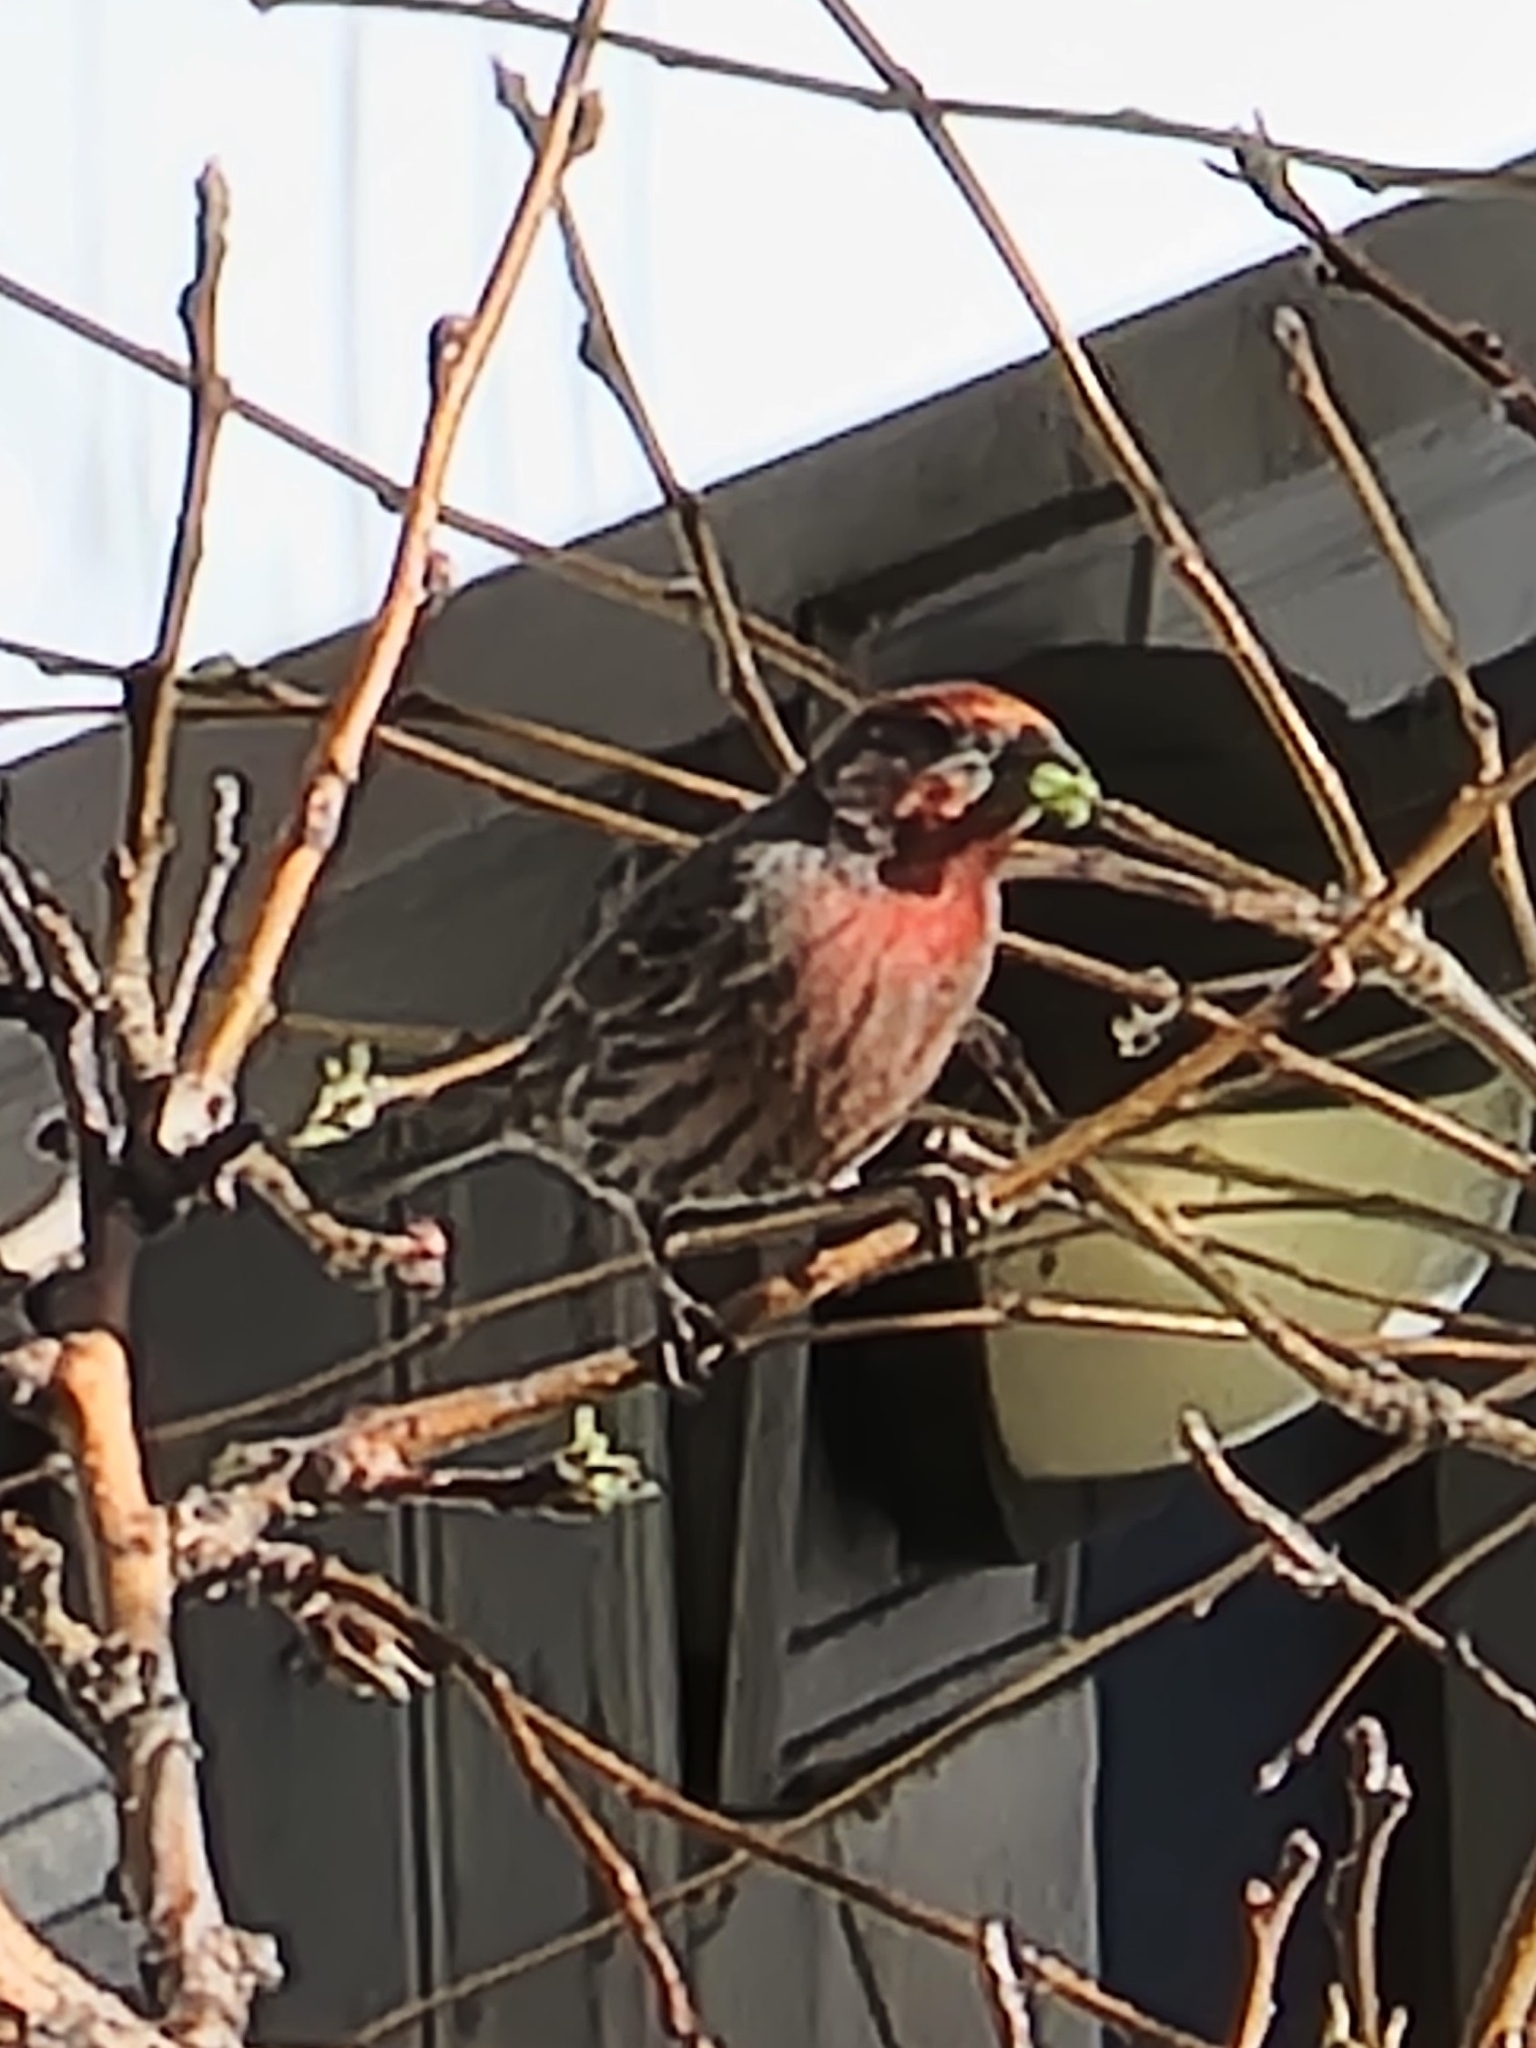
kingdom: Animalia
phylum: Chordata
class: Aves
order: Passeriformes
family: Fringillidae
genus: Haemorhous
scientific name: Haemorhous mexicanus
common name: House finch
